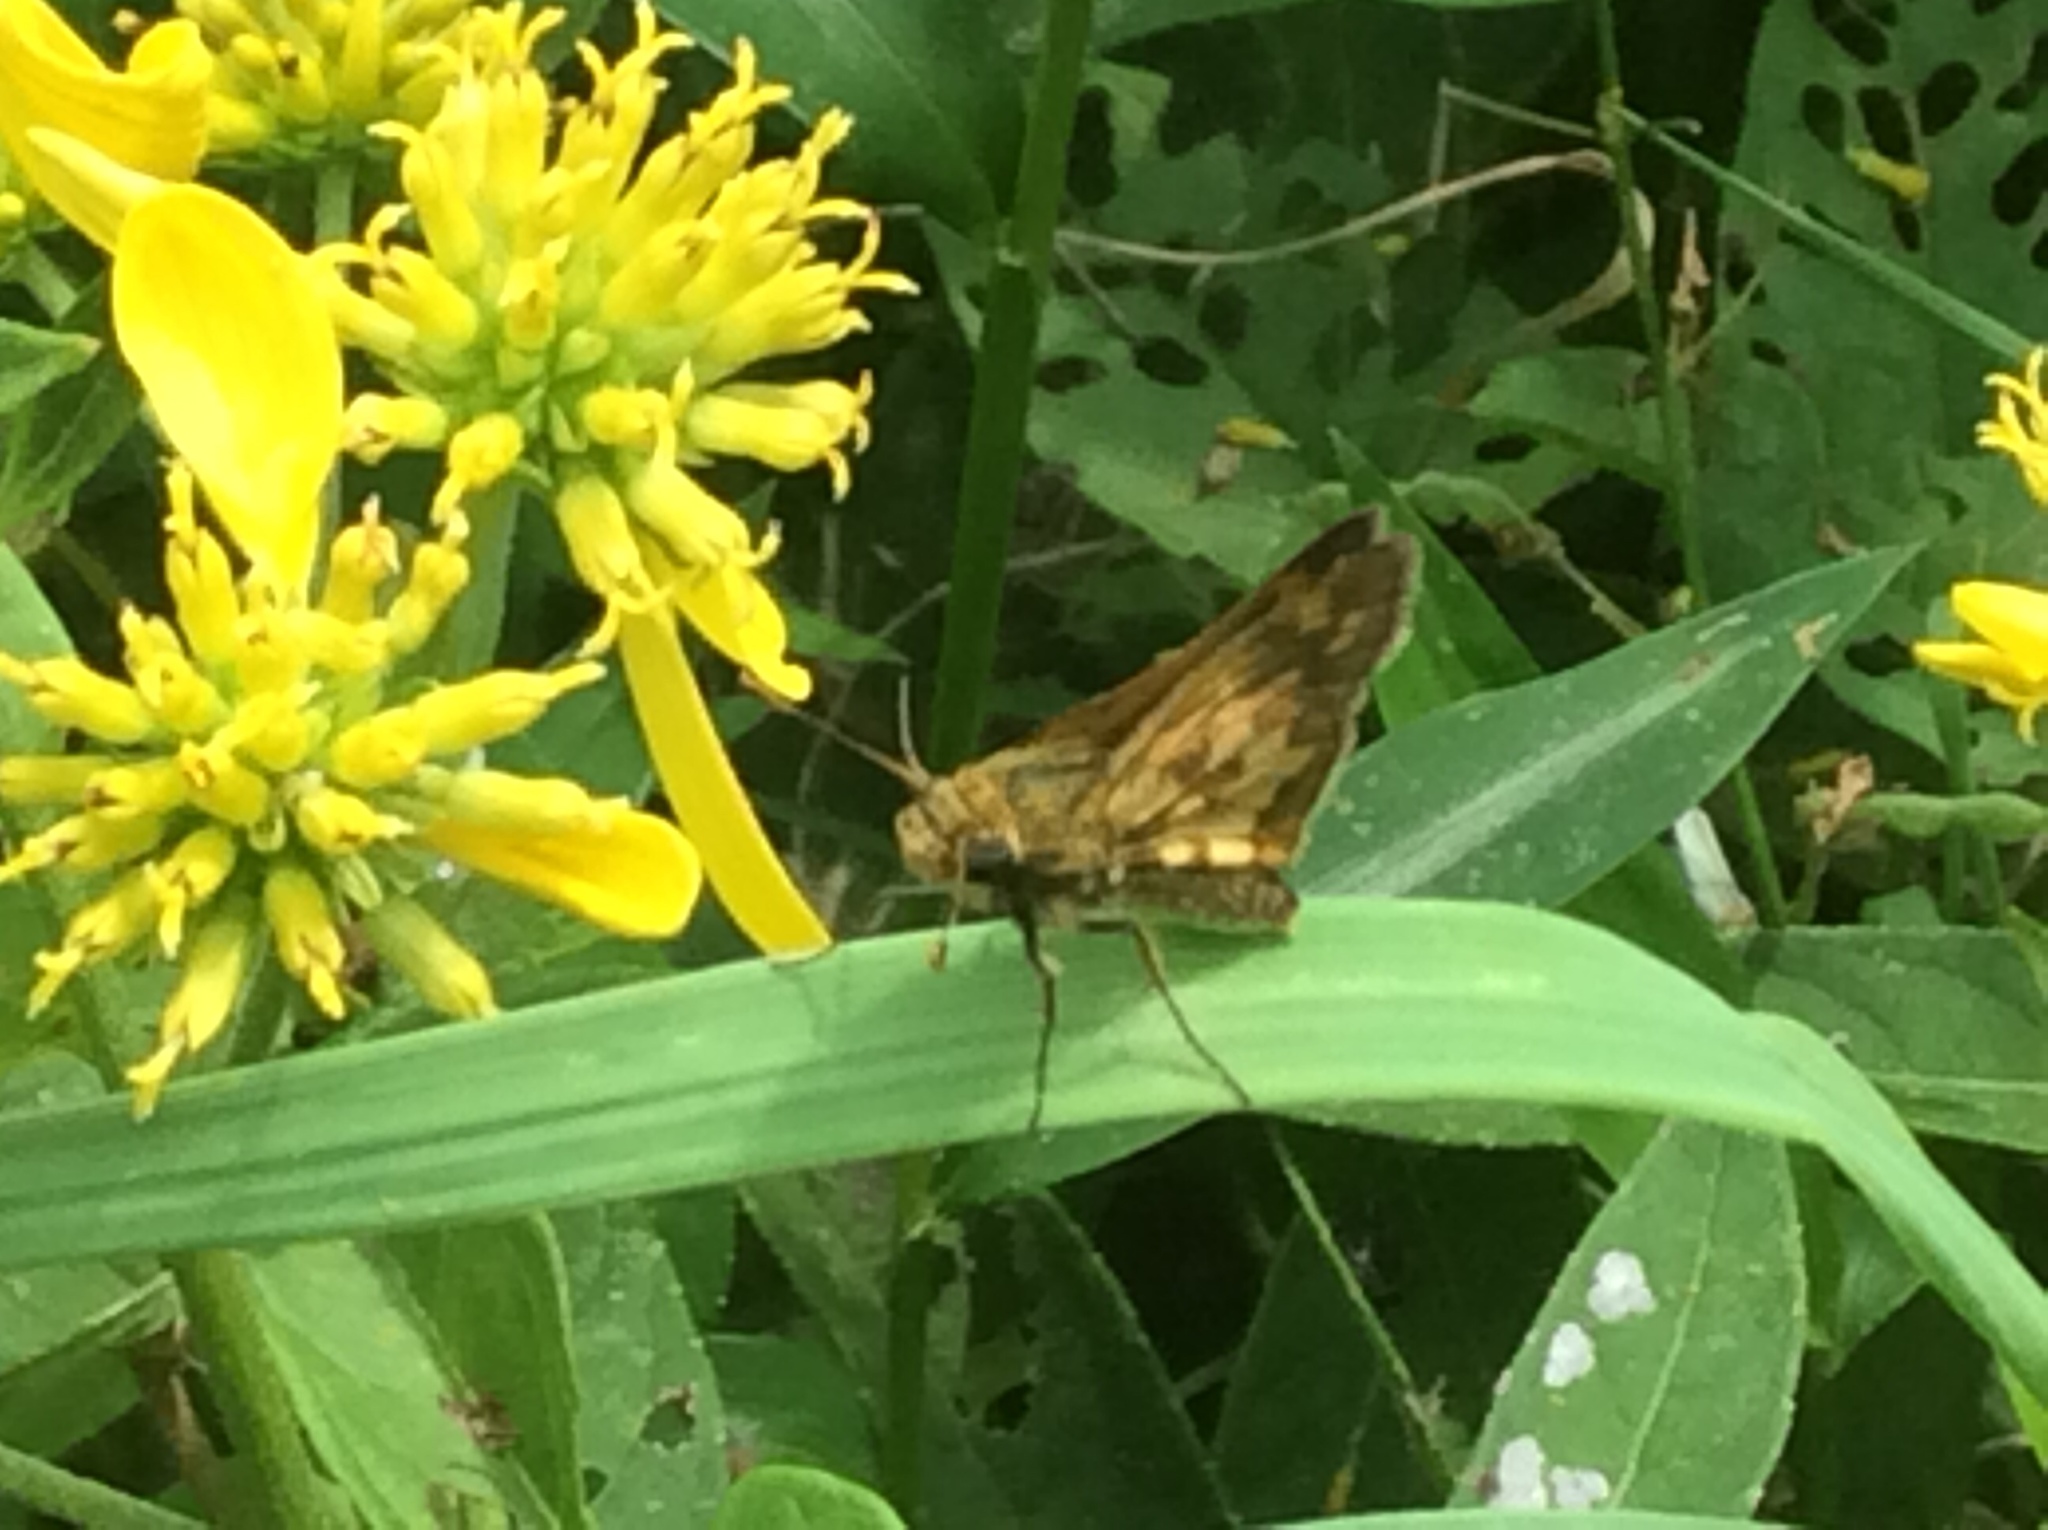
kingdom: Animalia
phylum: Arthropoda
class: Insecta
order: Lepidoptera
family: Hesperiidae
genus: Polites
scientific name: Polites coras
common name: Peck's skipper
